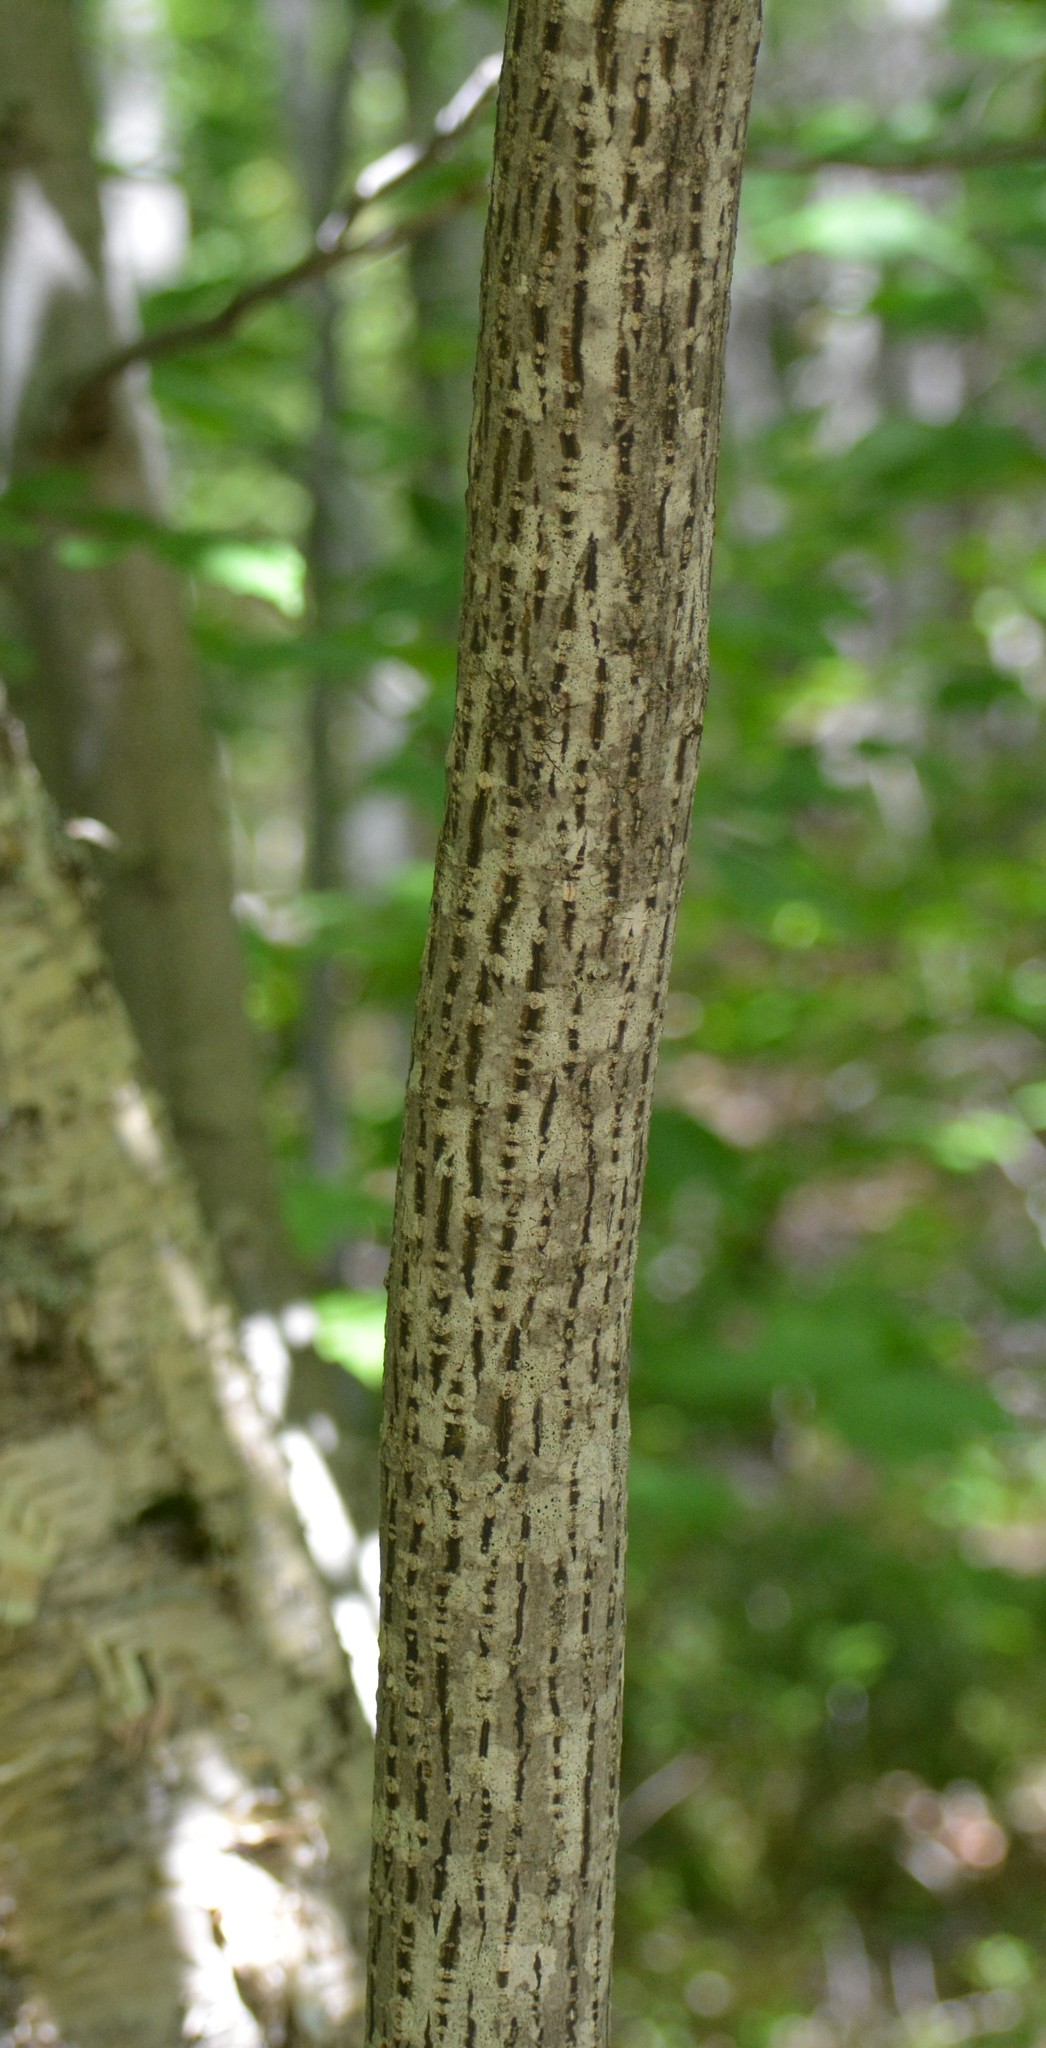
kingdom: Plantae
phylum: Tracheophyta
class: Magnoliopsida
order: Sapindales
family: Sapindaceae
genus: Acer
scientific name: Acer pensylvanicum
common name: Moosewood
